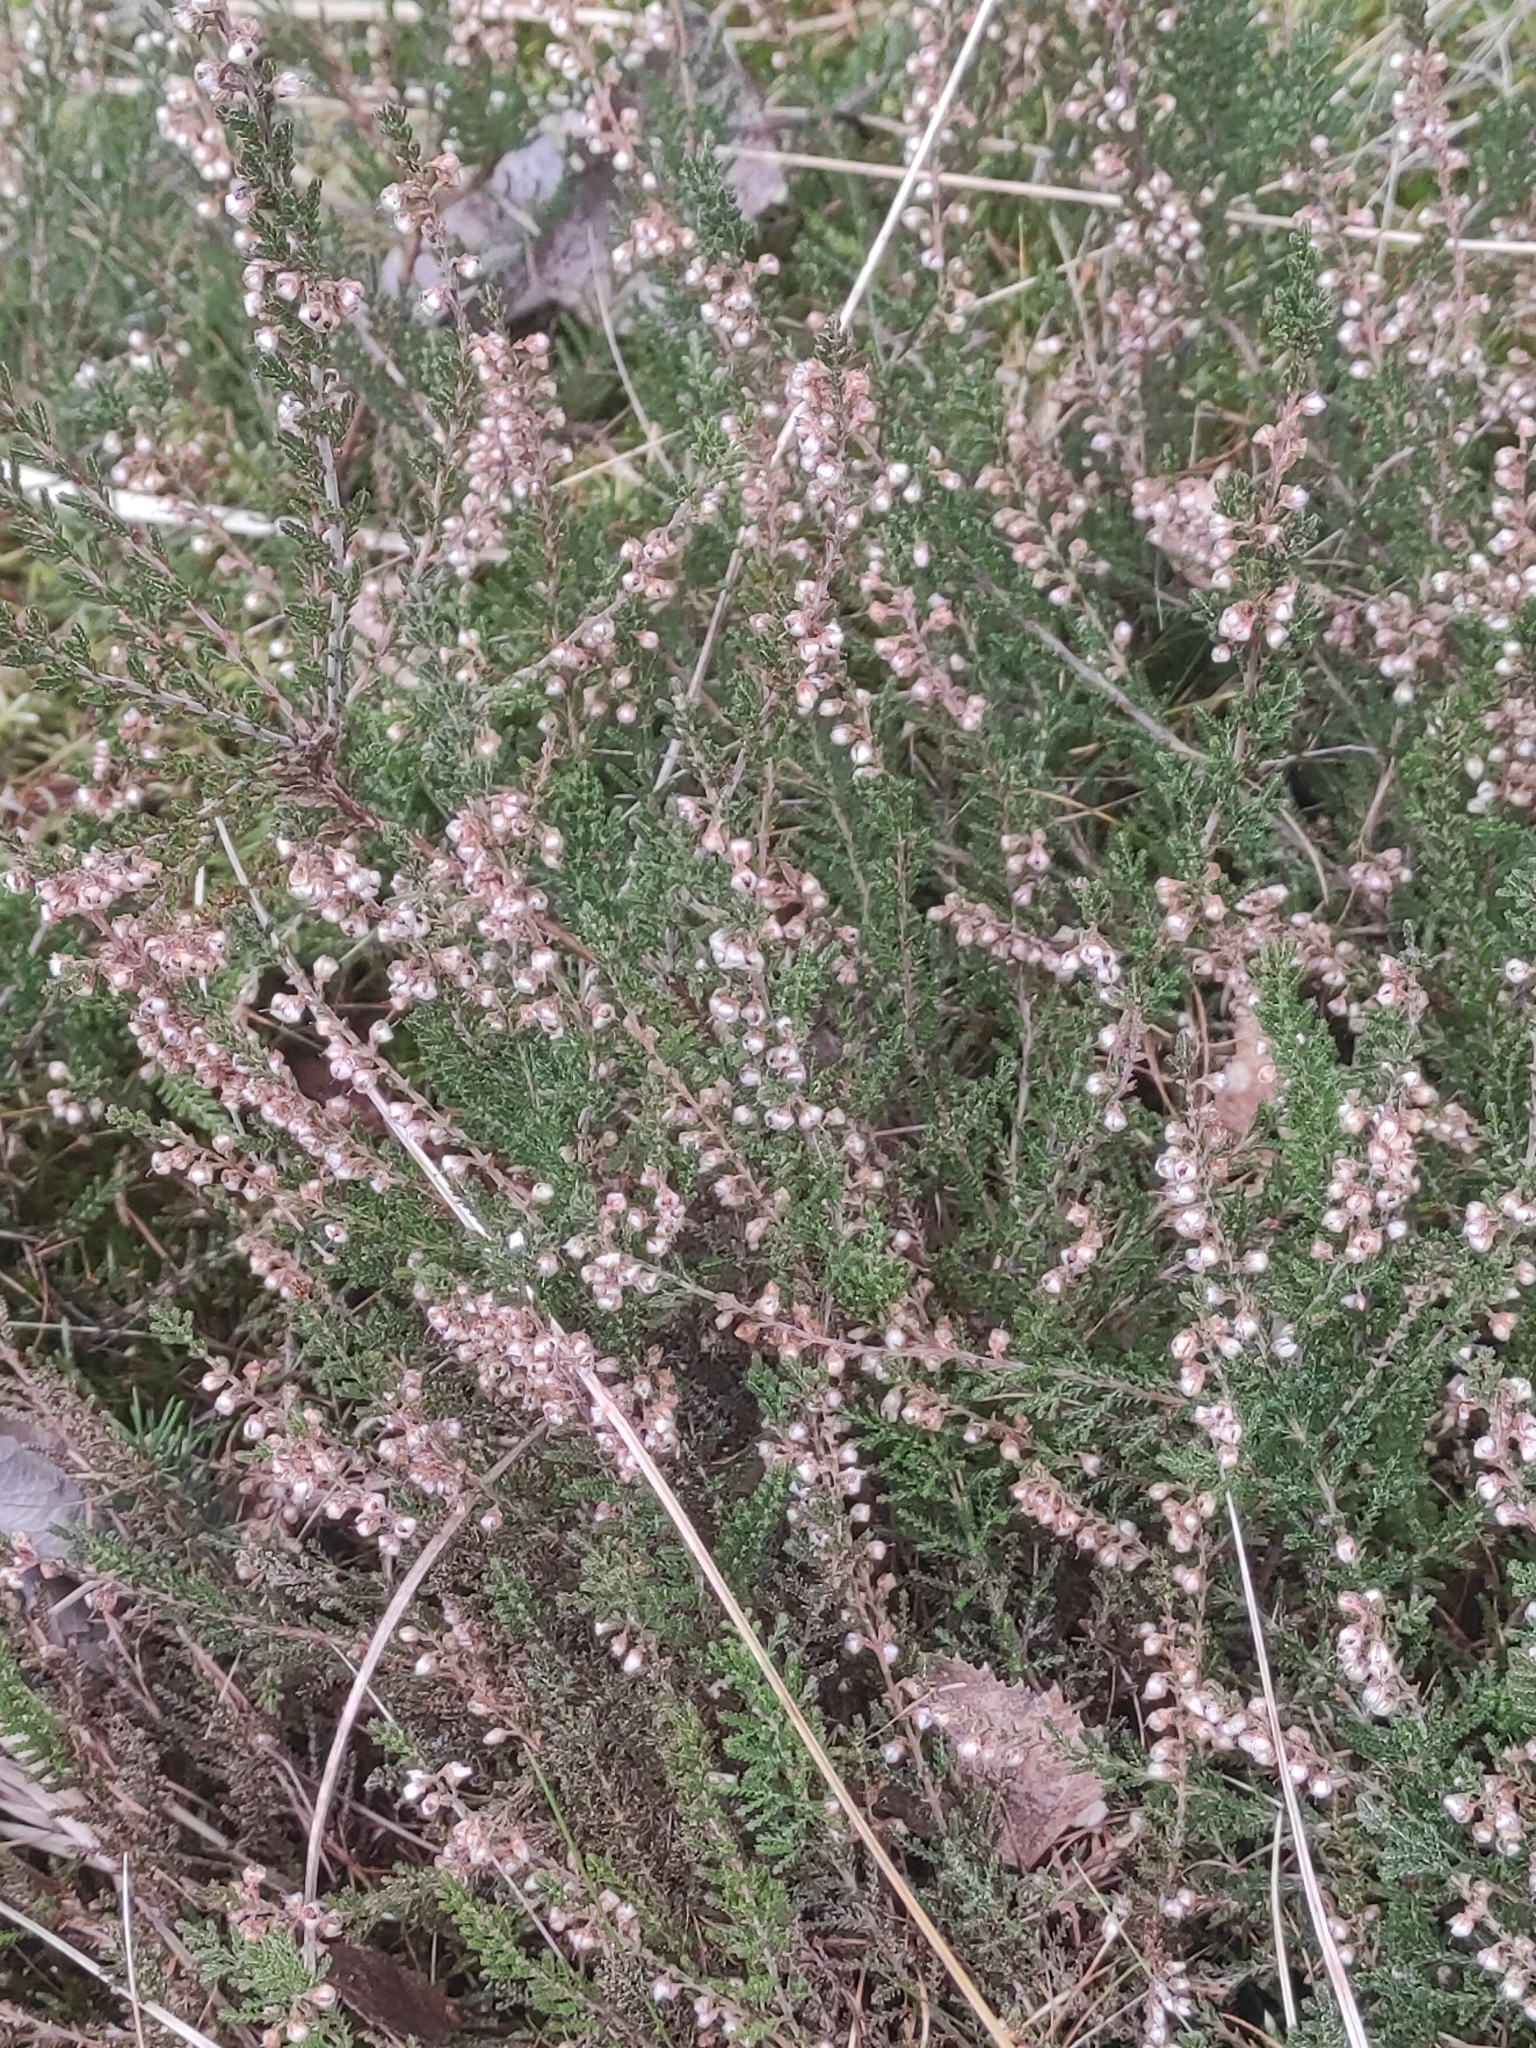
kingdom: Plantae
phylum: Tracheophyta
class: Magnoliopsida
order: Ericales
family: Ericaceae
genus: Calluna
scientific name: Calluna vulgaris
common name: Heather
